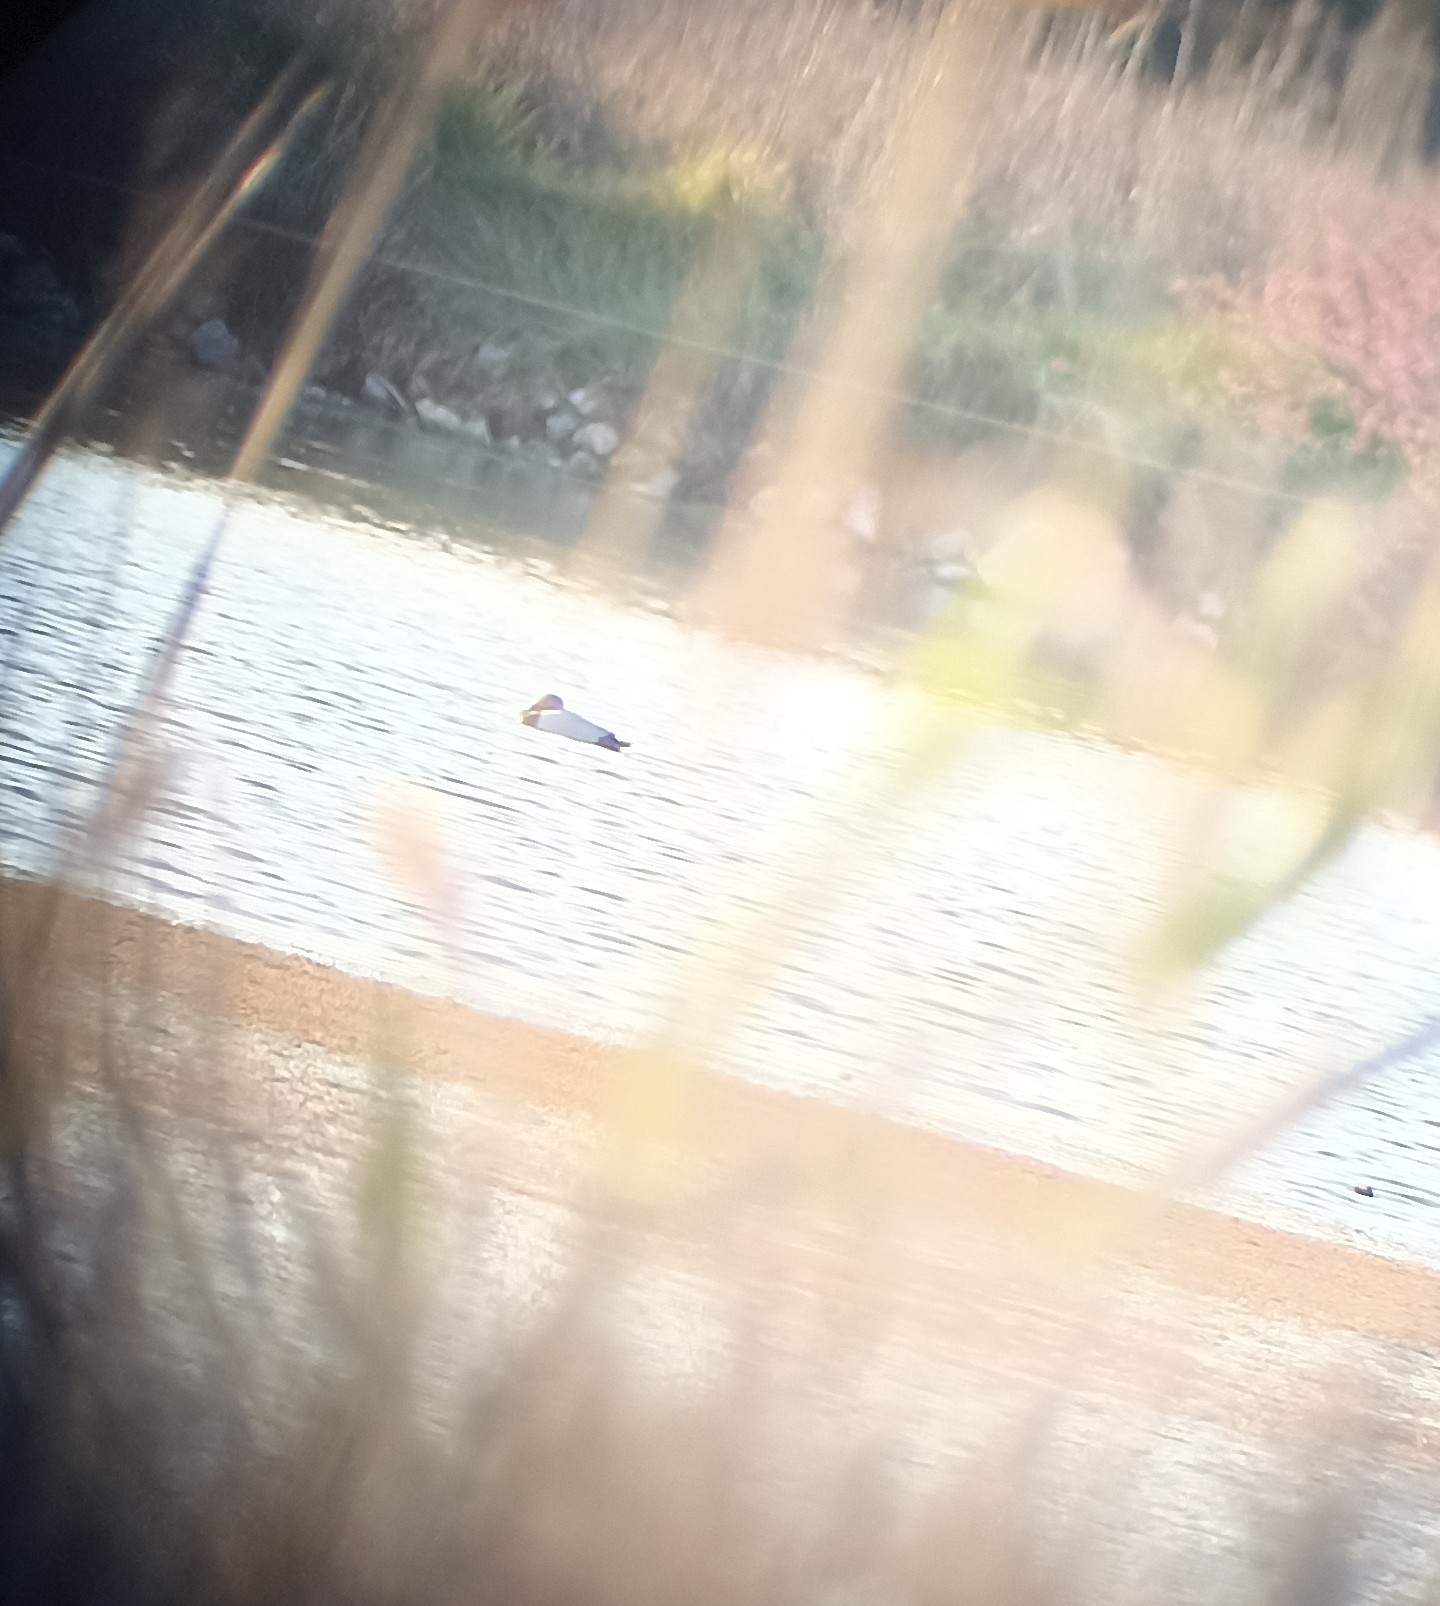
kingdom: Animalia
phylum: Chordata
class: Aves
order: Anseriformes
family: Anatidae
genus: Aythya
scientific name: Aythya ferina
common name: Common pochard
